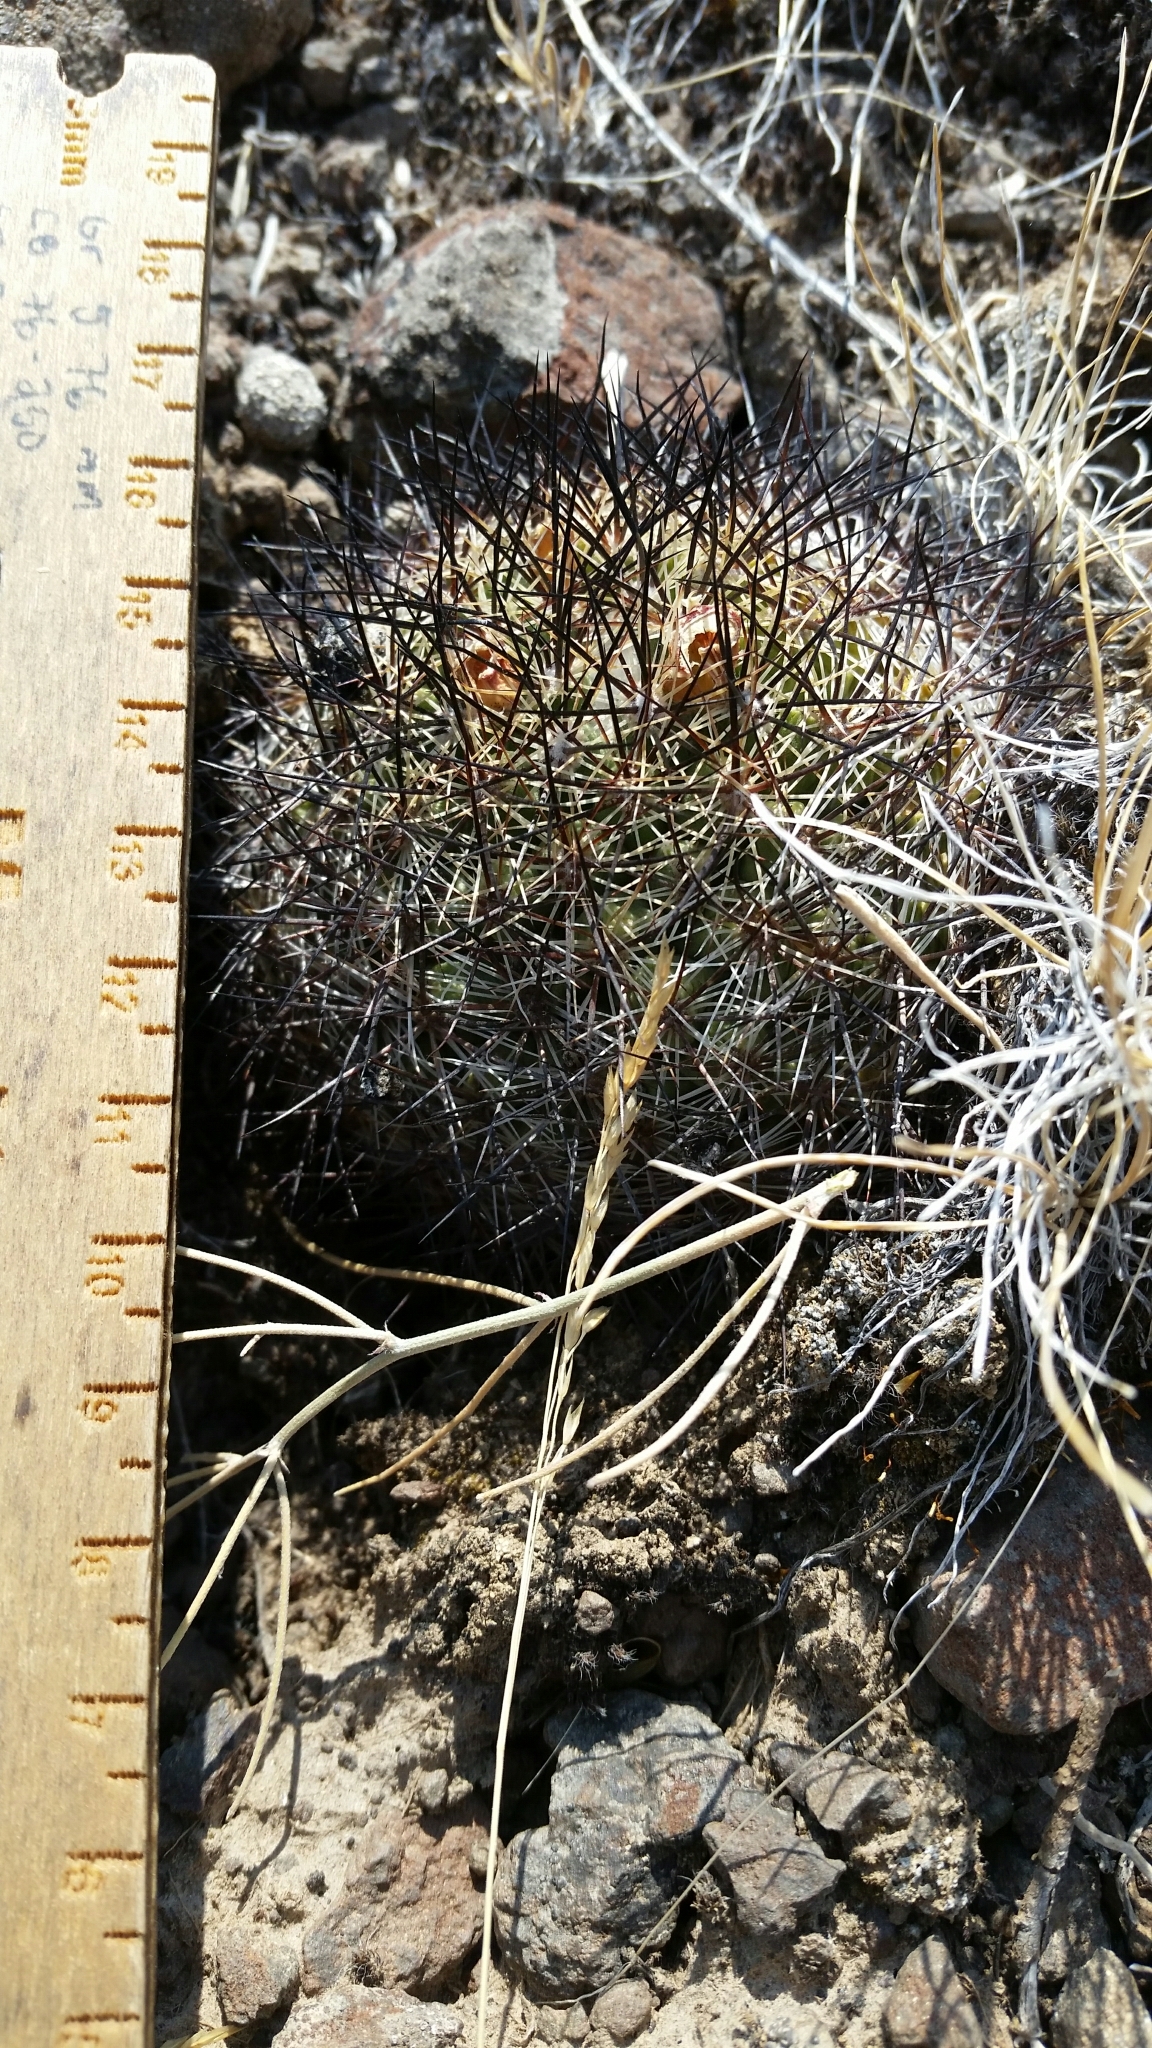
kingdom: Plantae
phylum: Tracheophyta
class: Magnoliopsida
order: Caryophyllales
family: Cactaceae
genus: Pediocactus
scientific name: Pediocactus simpsonii
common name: Simpson's hedgehog cactus
